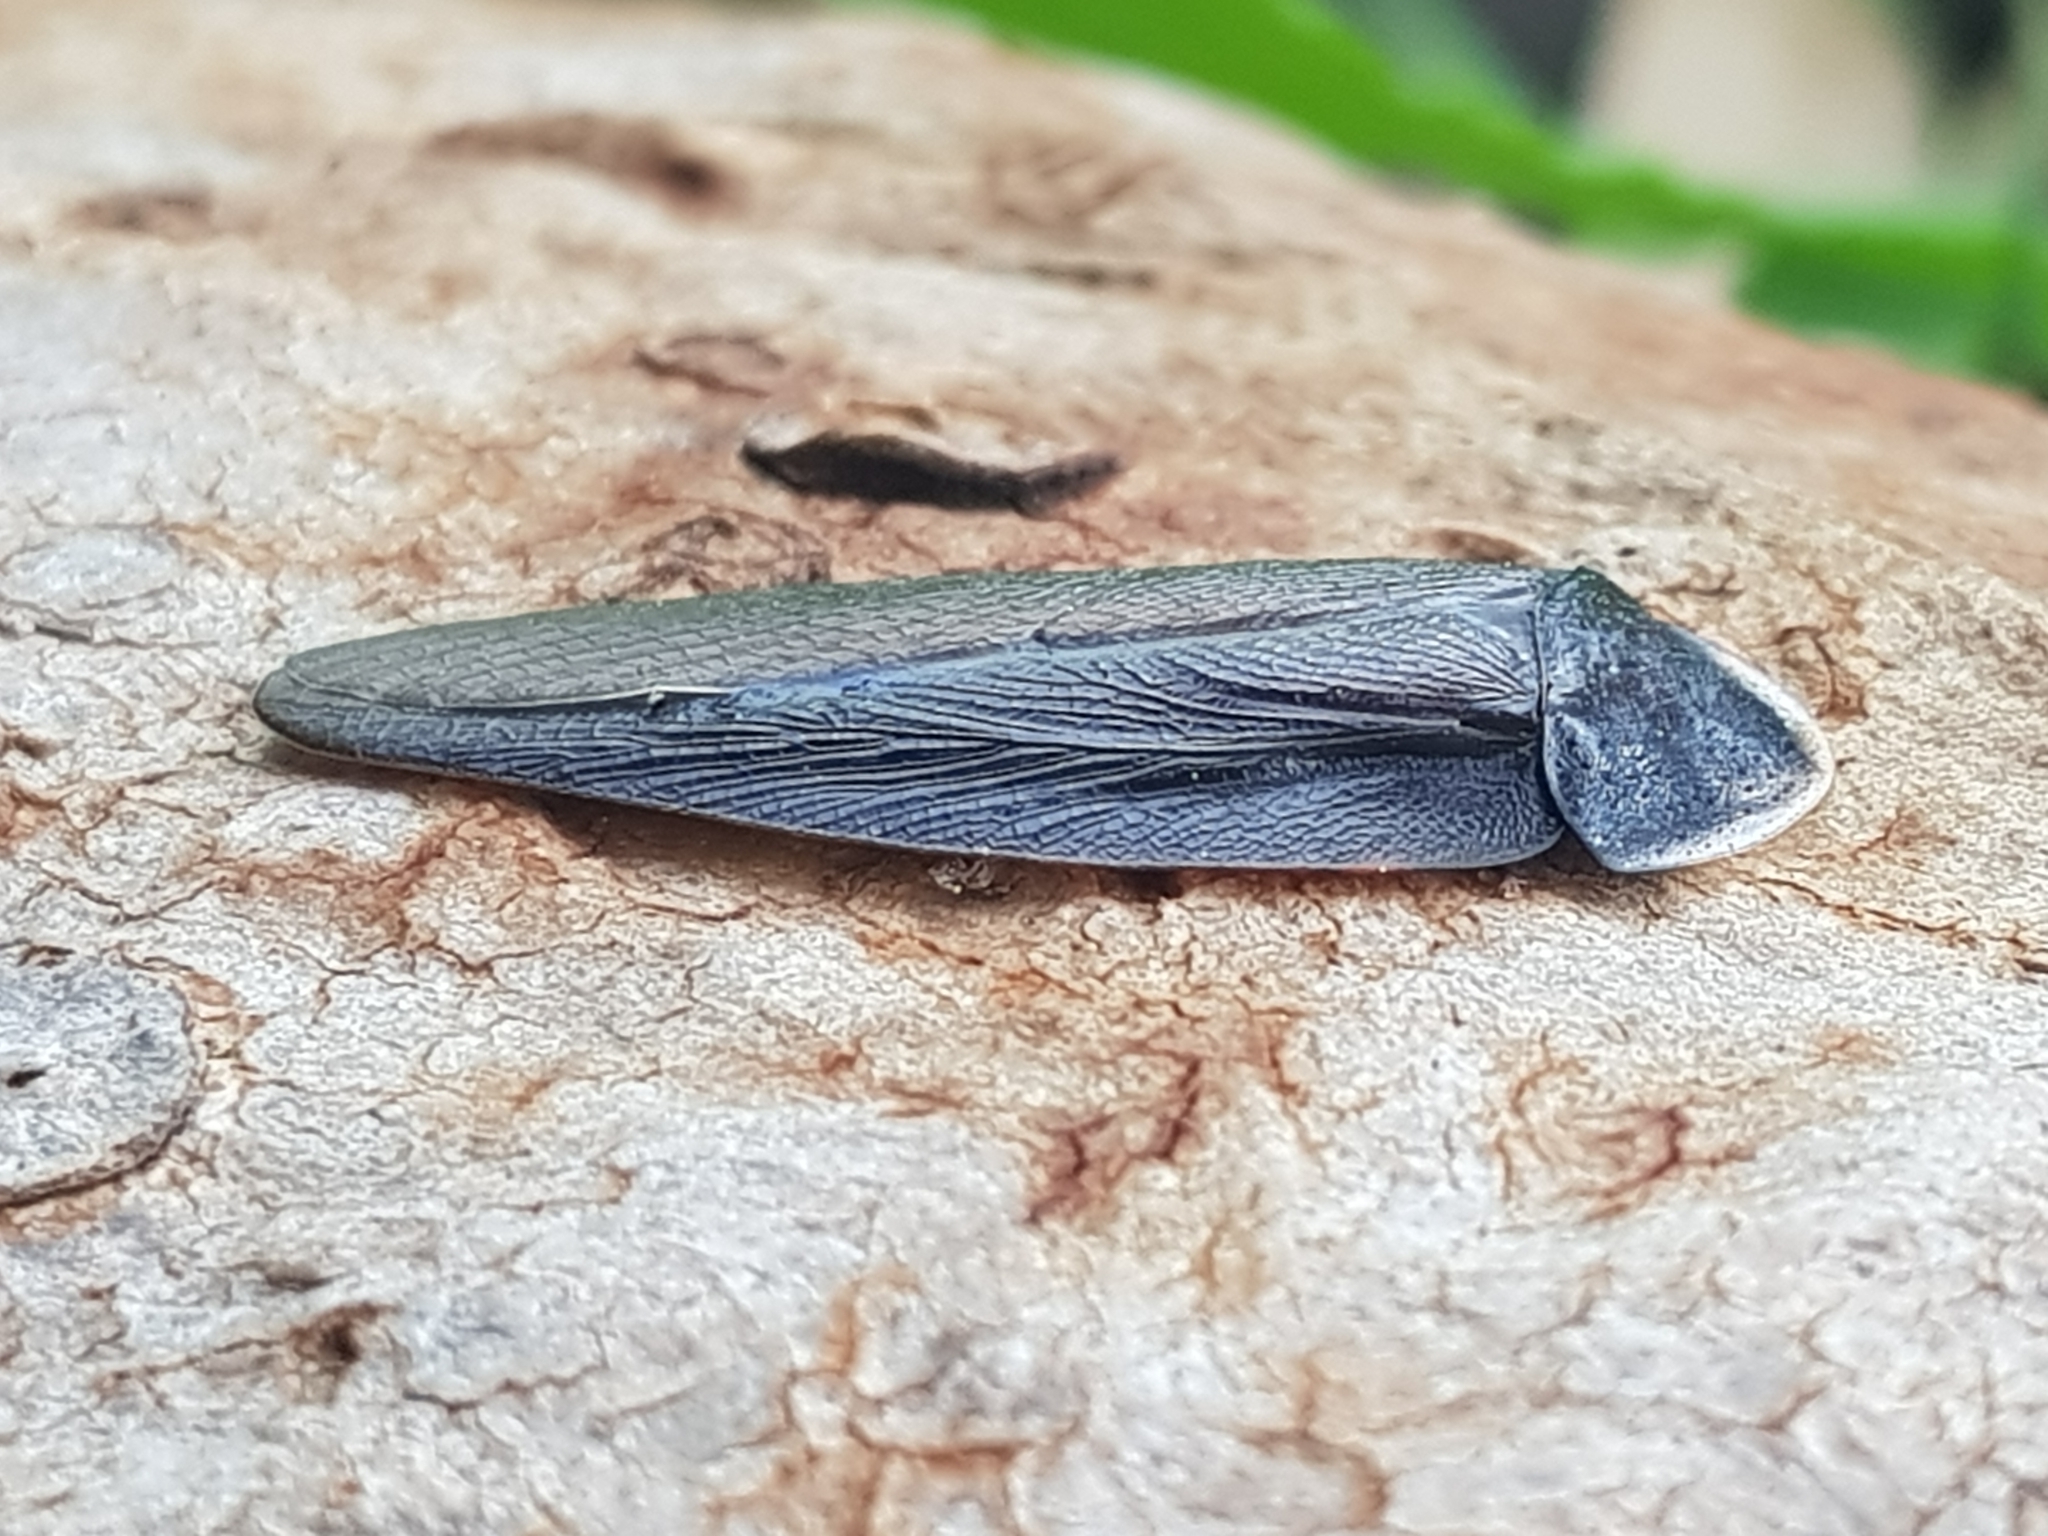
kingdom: Animalia
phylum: Arthropoda
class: Insecta
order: Blattodea
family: Blaberidae
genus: Laxta
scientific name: Laxta granicollis
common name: Bark cockroach
